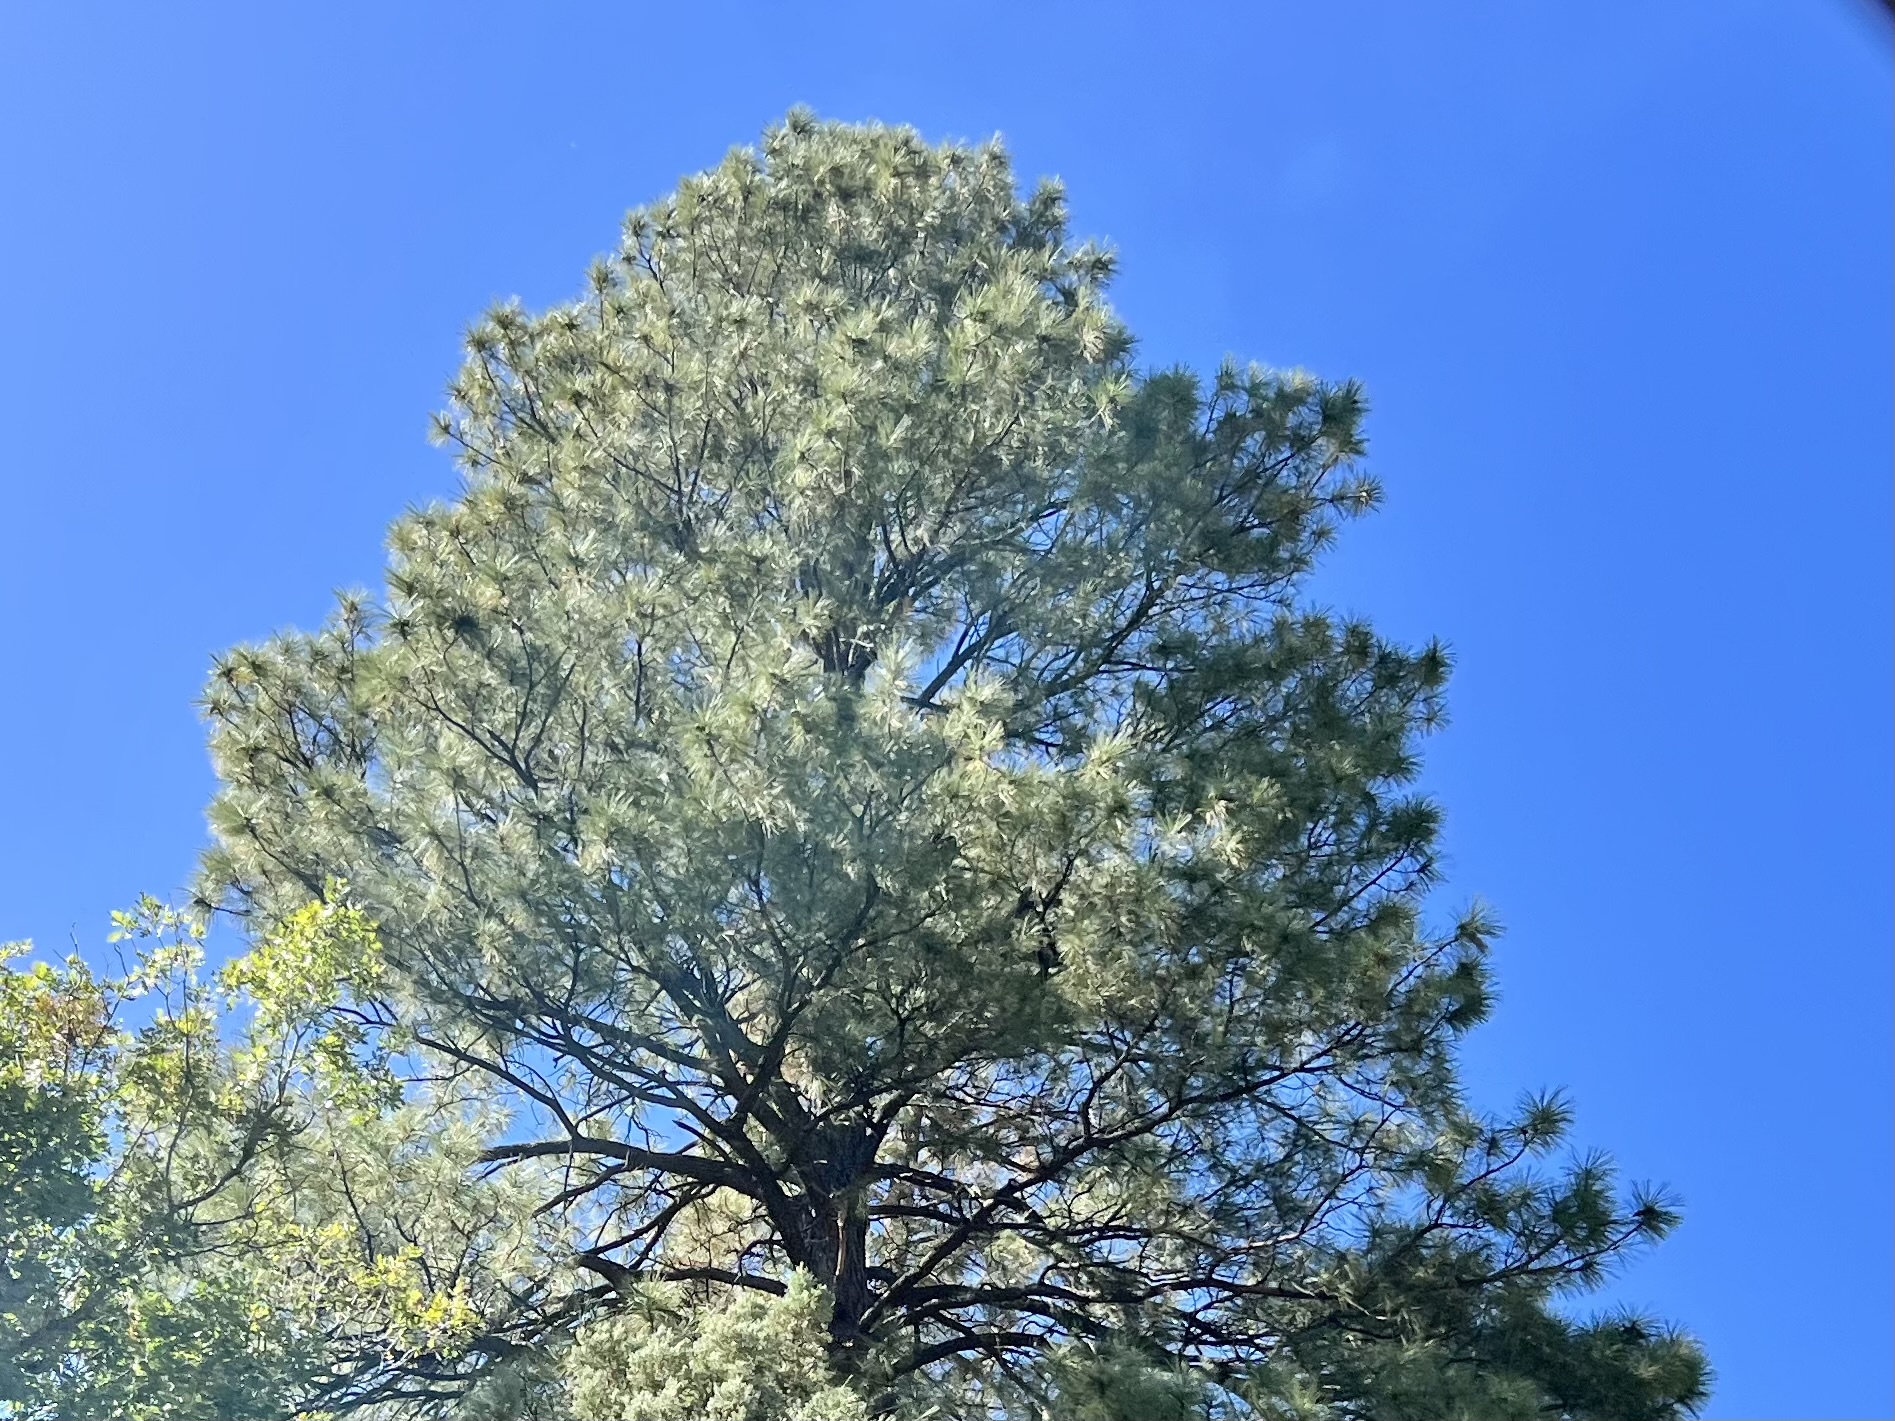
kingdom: Plantae
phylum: Tracheophyta
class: Pinopsida
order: Pinales
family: Pinaceae
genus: Pinus
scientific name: Pinus ponderosa
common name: Western yellow-pine
